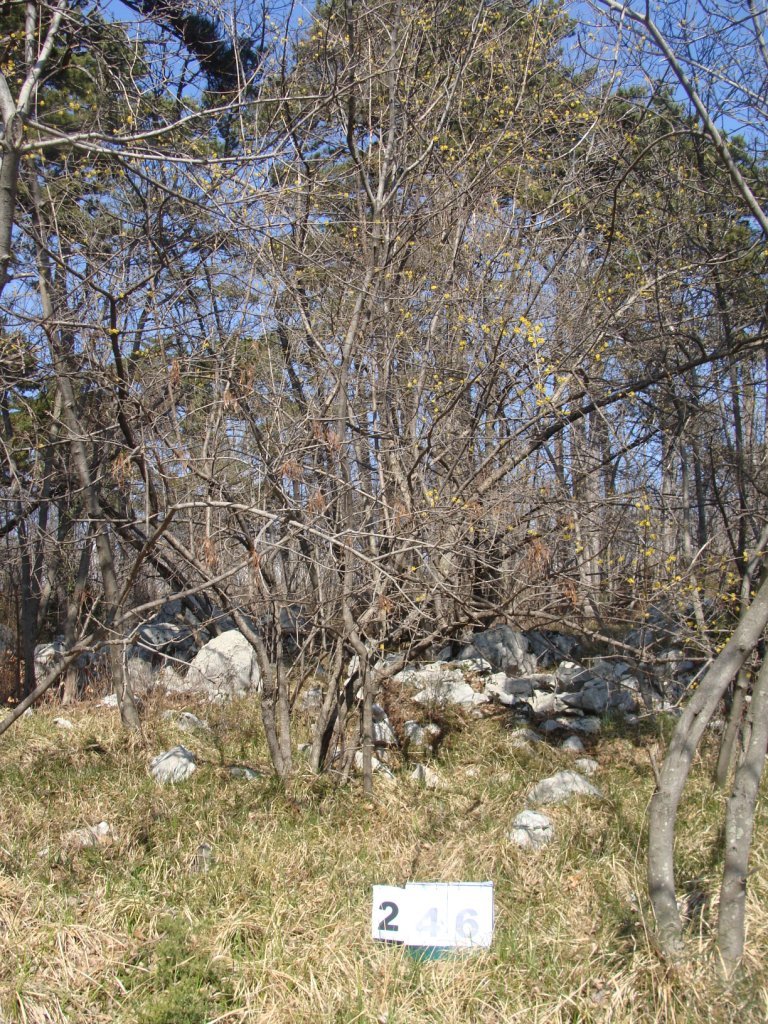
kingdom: Plantae
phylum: Tracheophyta
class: Magnoliopsida
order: Cornales
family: Cornaceae
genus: Cornus
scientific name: Cornus mas
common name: Cornelian-cherry
